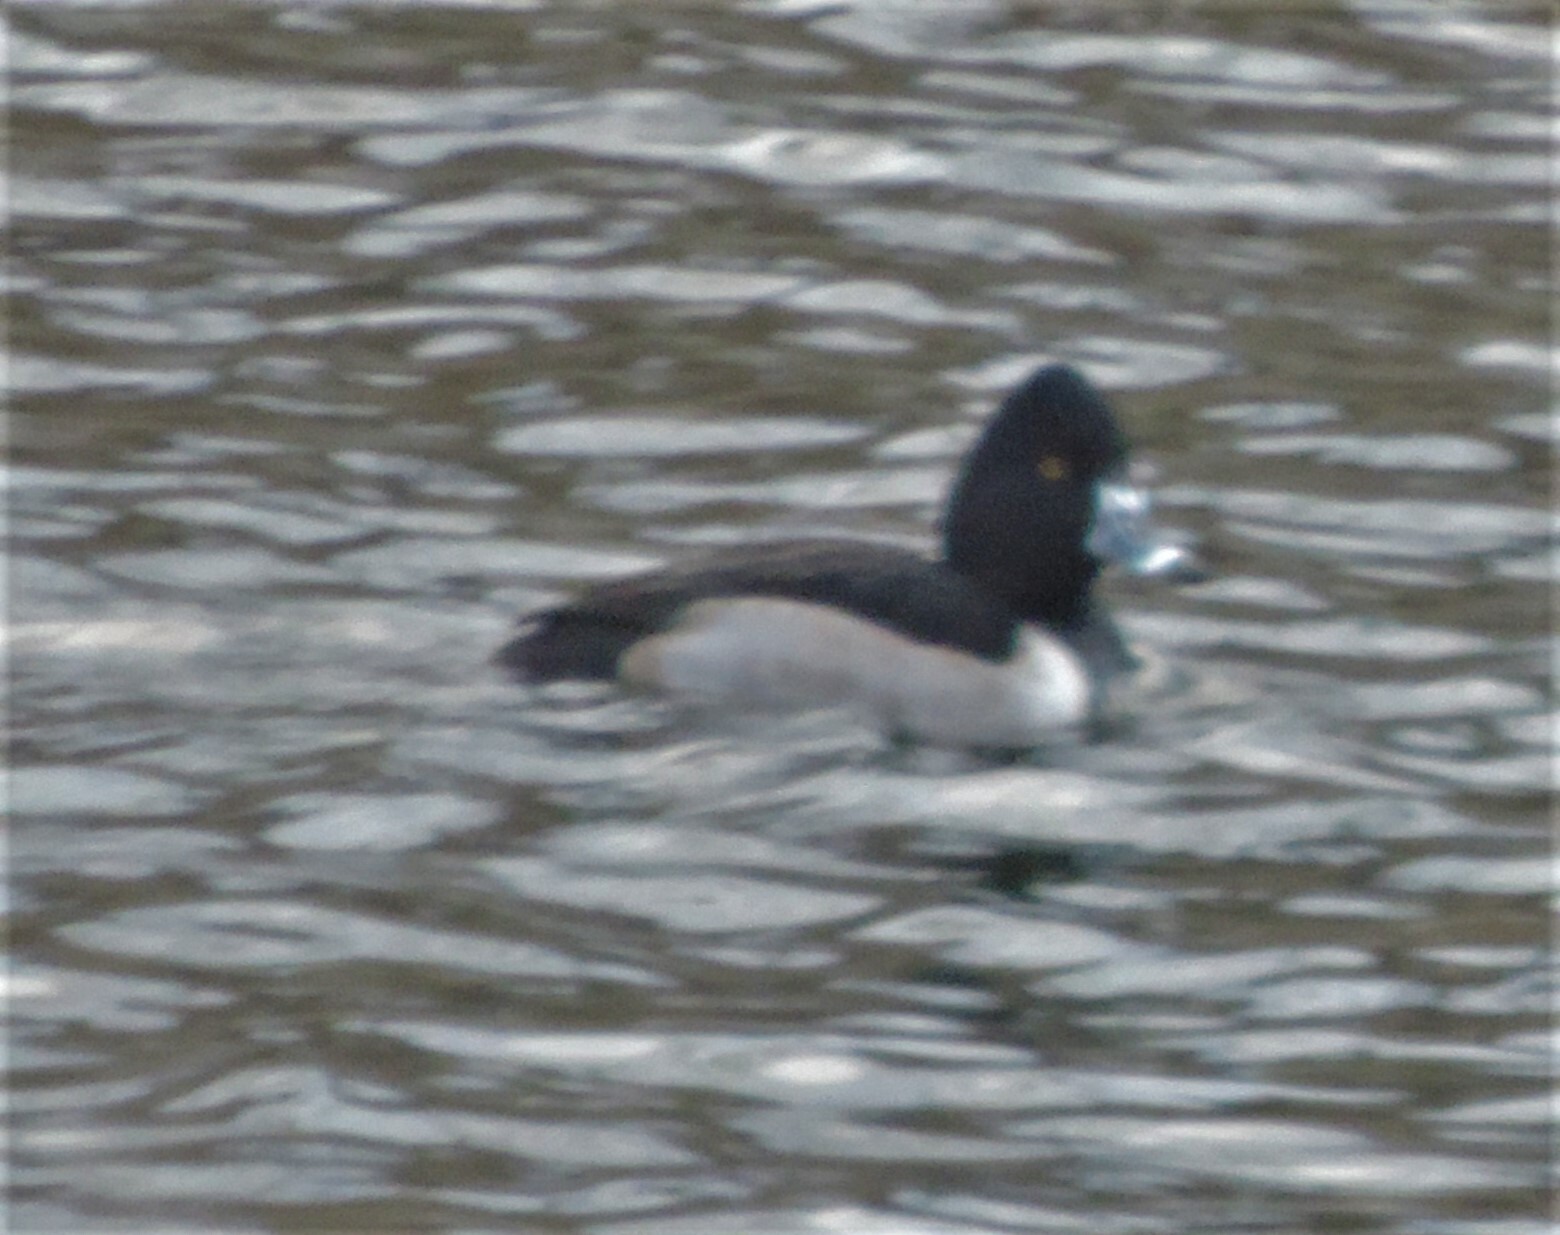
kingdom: Animalia
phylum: Chordata
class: Aves
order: Anseriformes
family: Anatidae
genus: Aythya
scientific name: Aythya collaris
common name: Ring-necked duck
